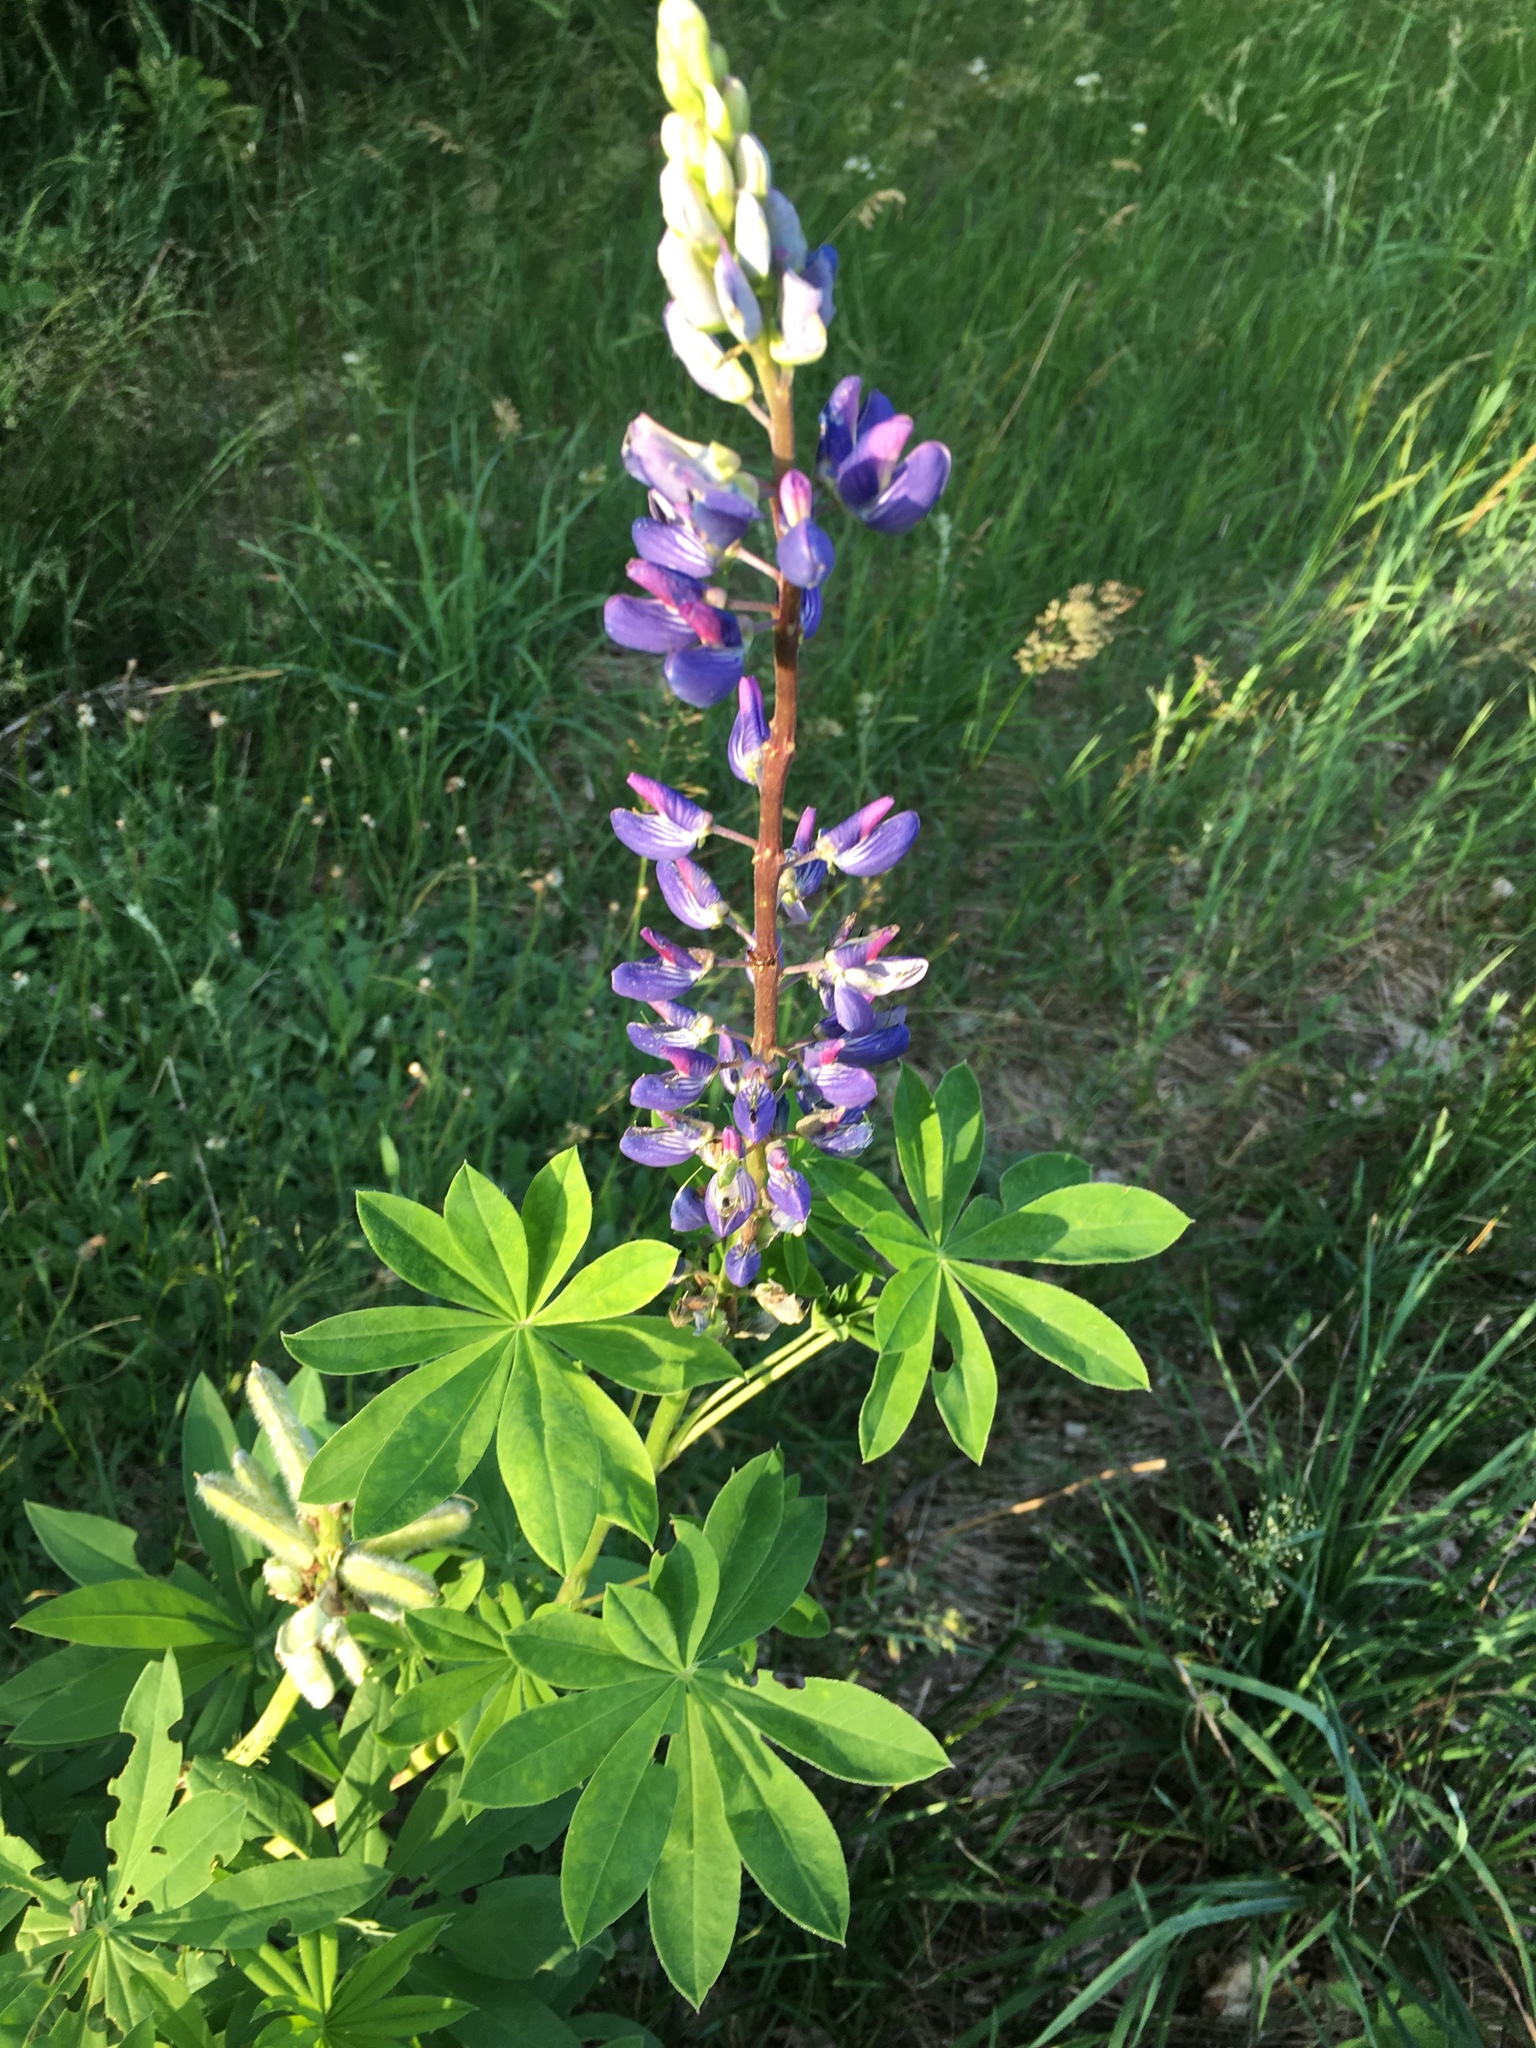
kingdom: Plantae
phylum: Tracheophyta
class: Magnoliopsida
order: Fabales
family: Fabaceae
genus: Lupinus
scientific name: Lupinus polyphyllus
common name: Garden lupin
